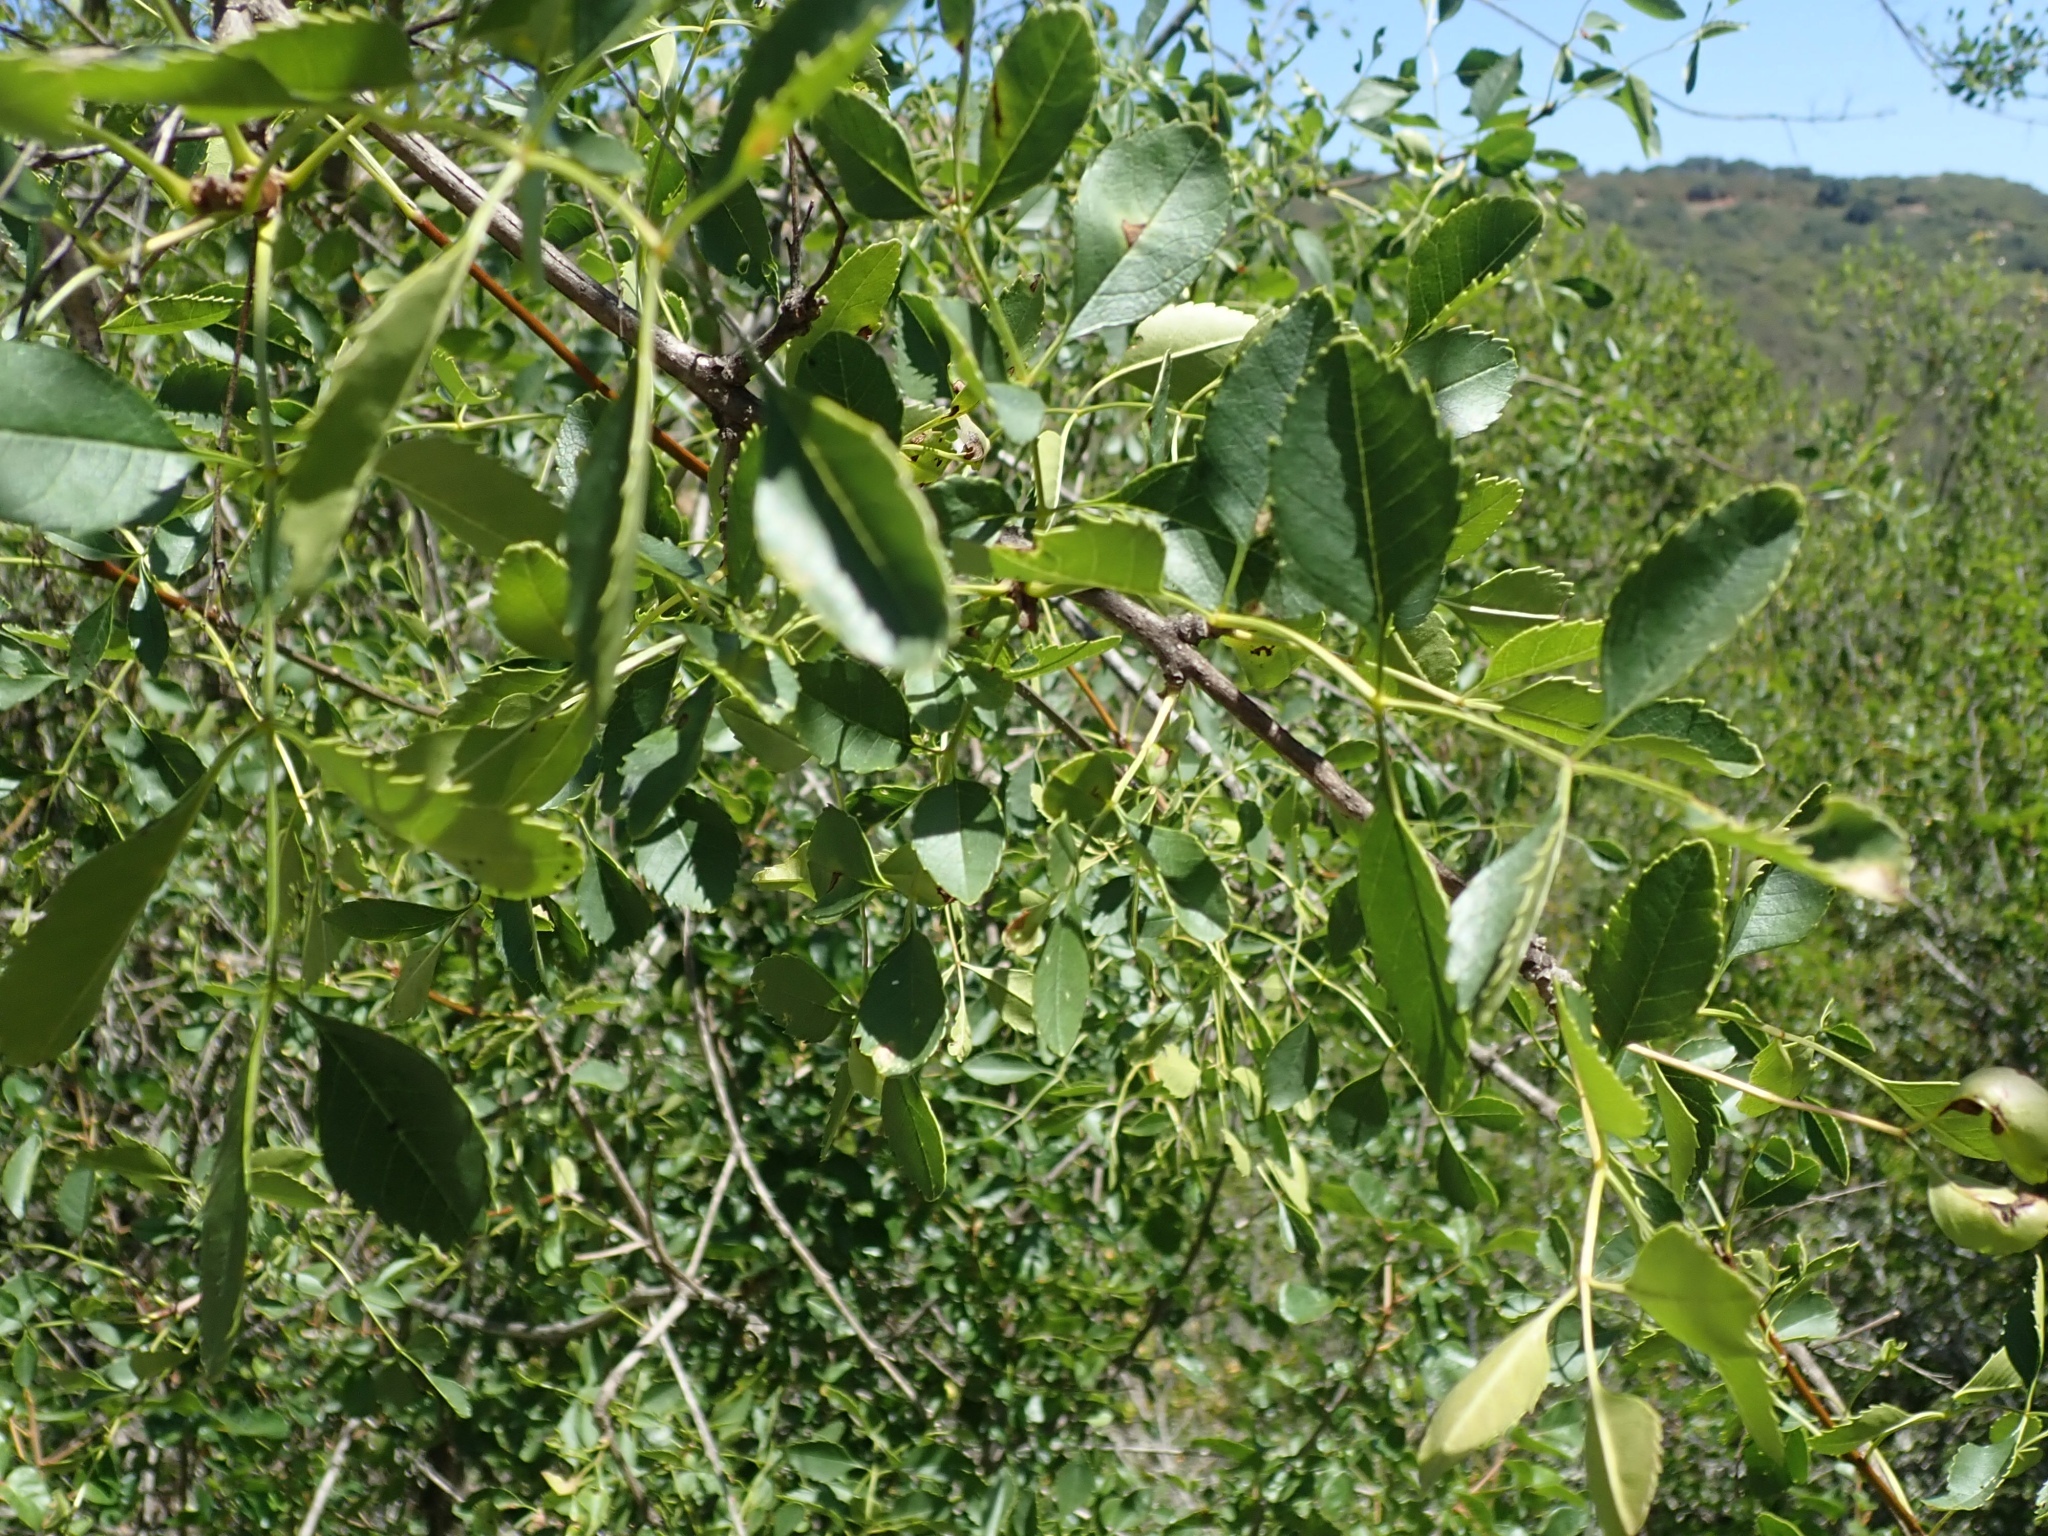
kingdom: Plantae
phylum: Tracheophyta
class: Magnoliopsida
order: Lamiales
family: Oleaceae
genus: Fraxinus
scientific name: Fraxinus dipetala
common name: California ash
